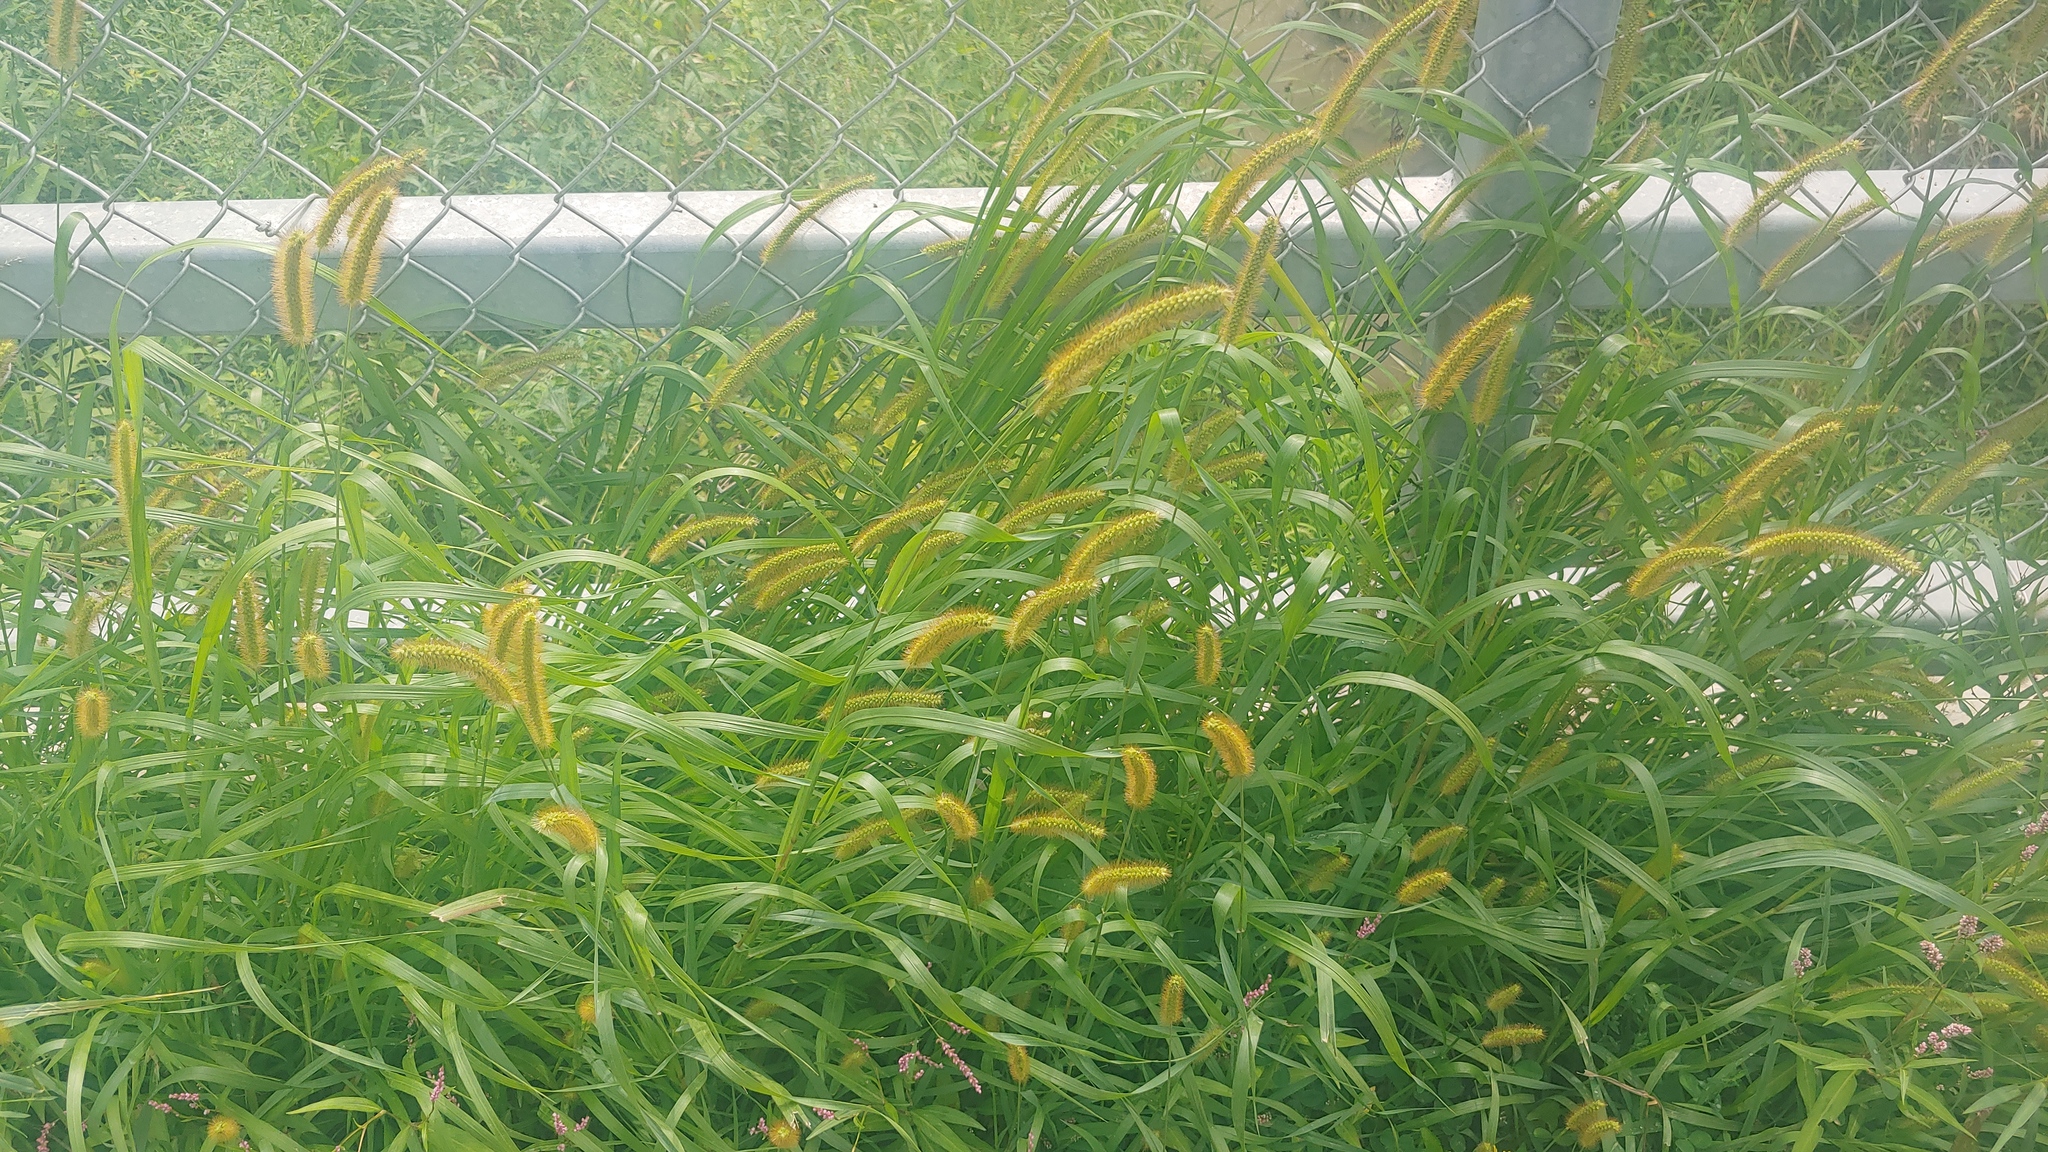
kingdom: Plantae
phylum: Tracheophyta
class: Liliopsida
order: Poales
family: Poaceae
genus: Setaria
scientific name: Setaria pumila
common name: Yellow bristle-grass
